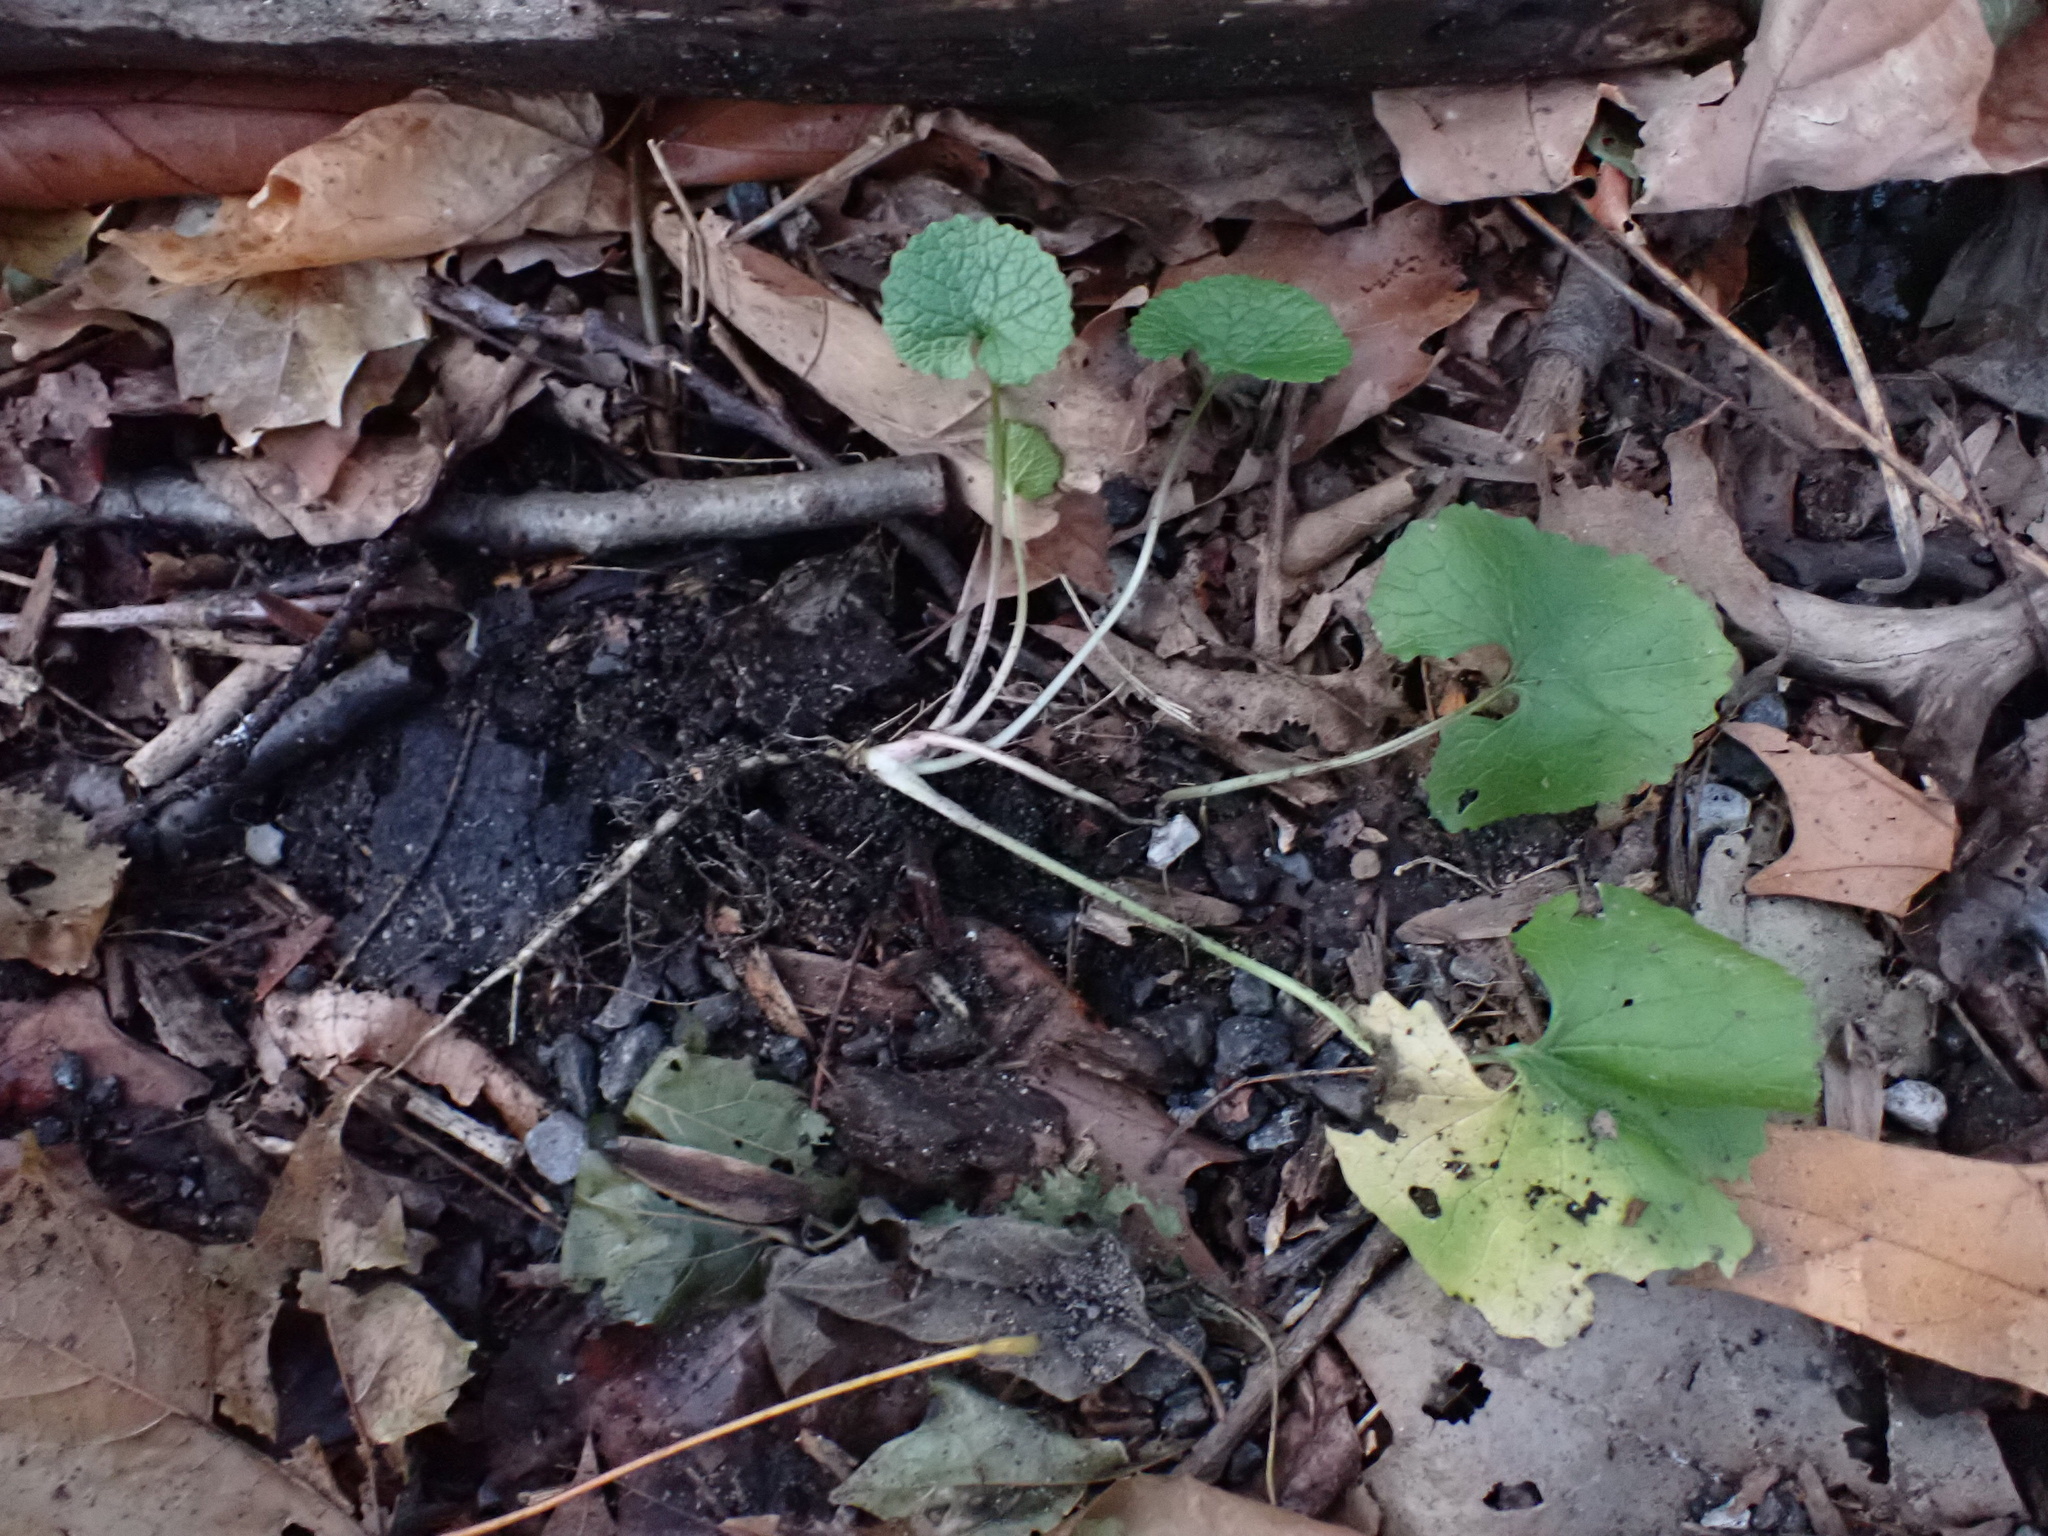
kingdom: Plantae
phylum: Tracheophyta
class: Magnoliopsida
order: Brassicales
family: Brassicaceae
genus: Alliaria
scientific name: Alliaria petiolata
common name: Garlic mustard
